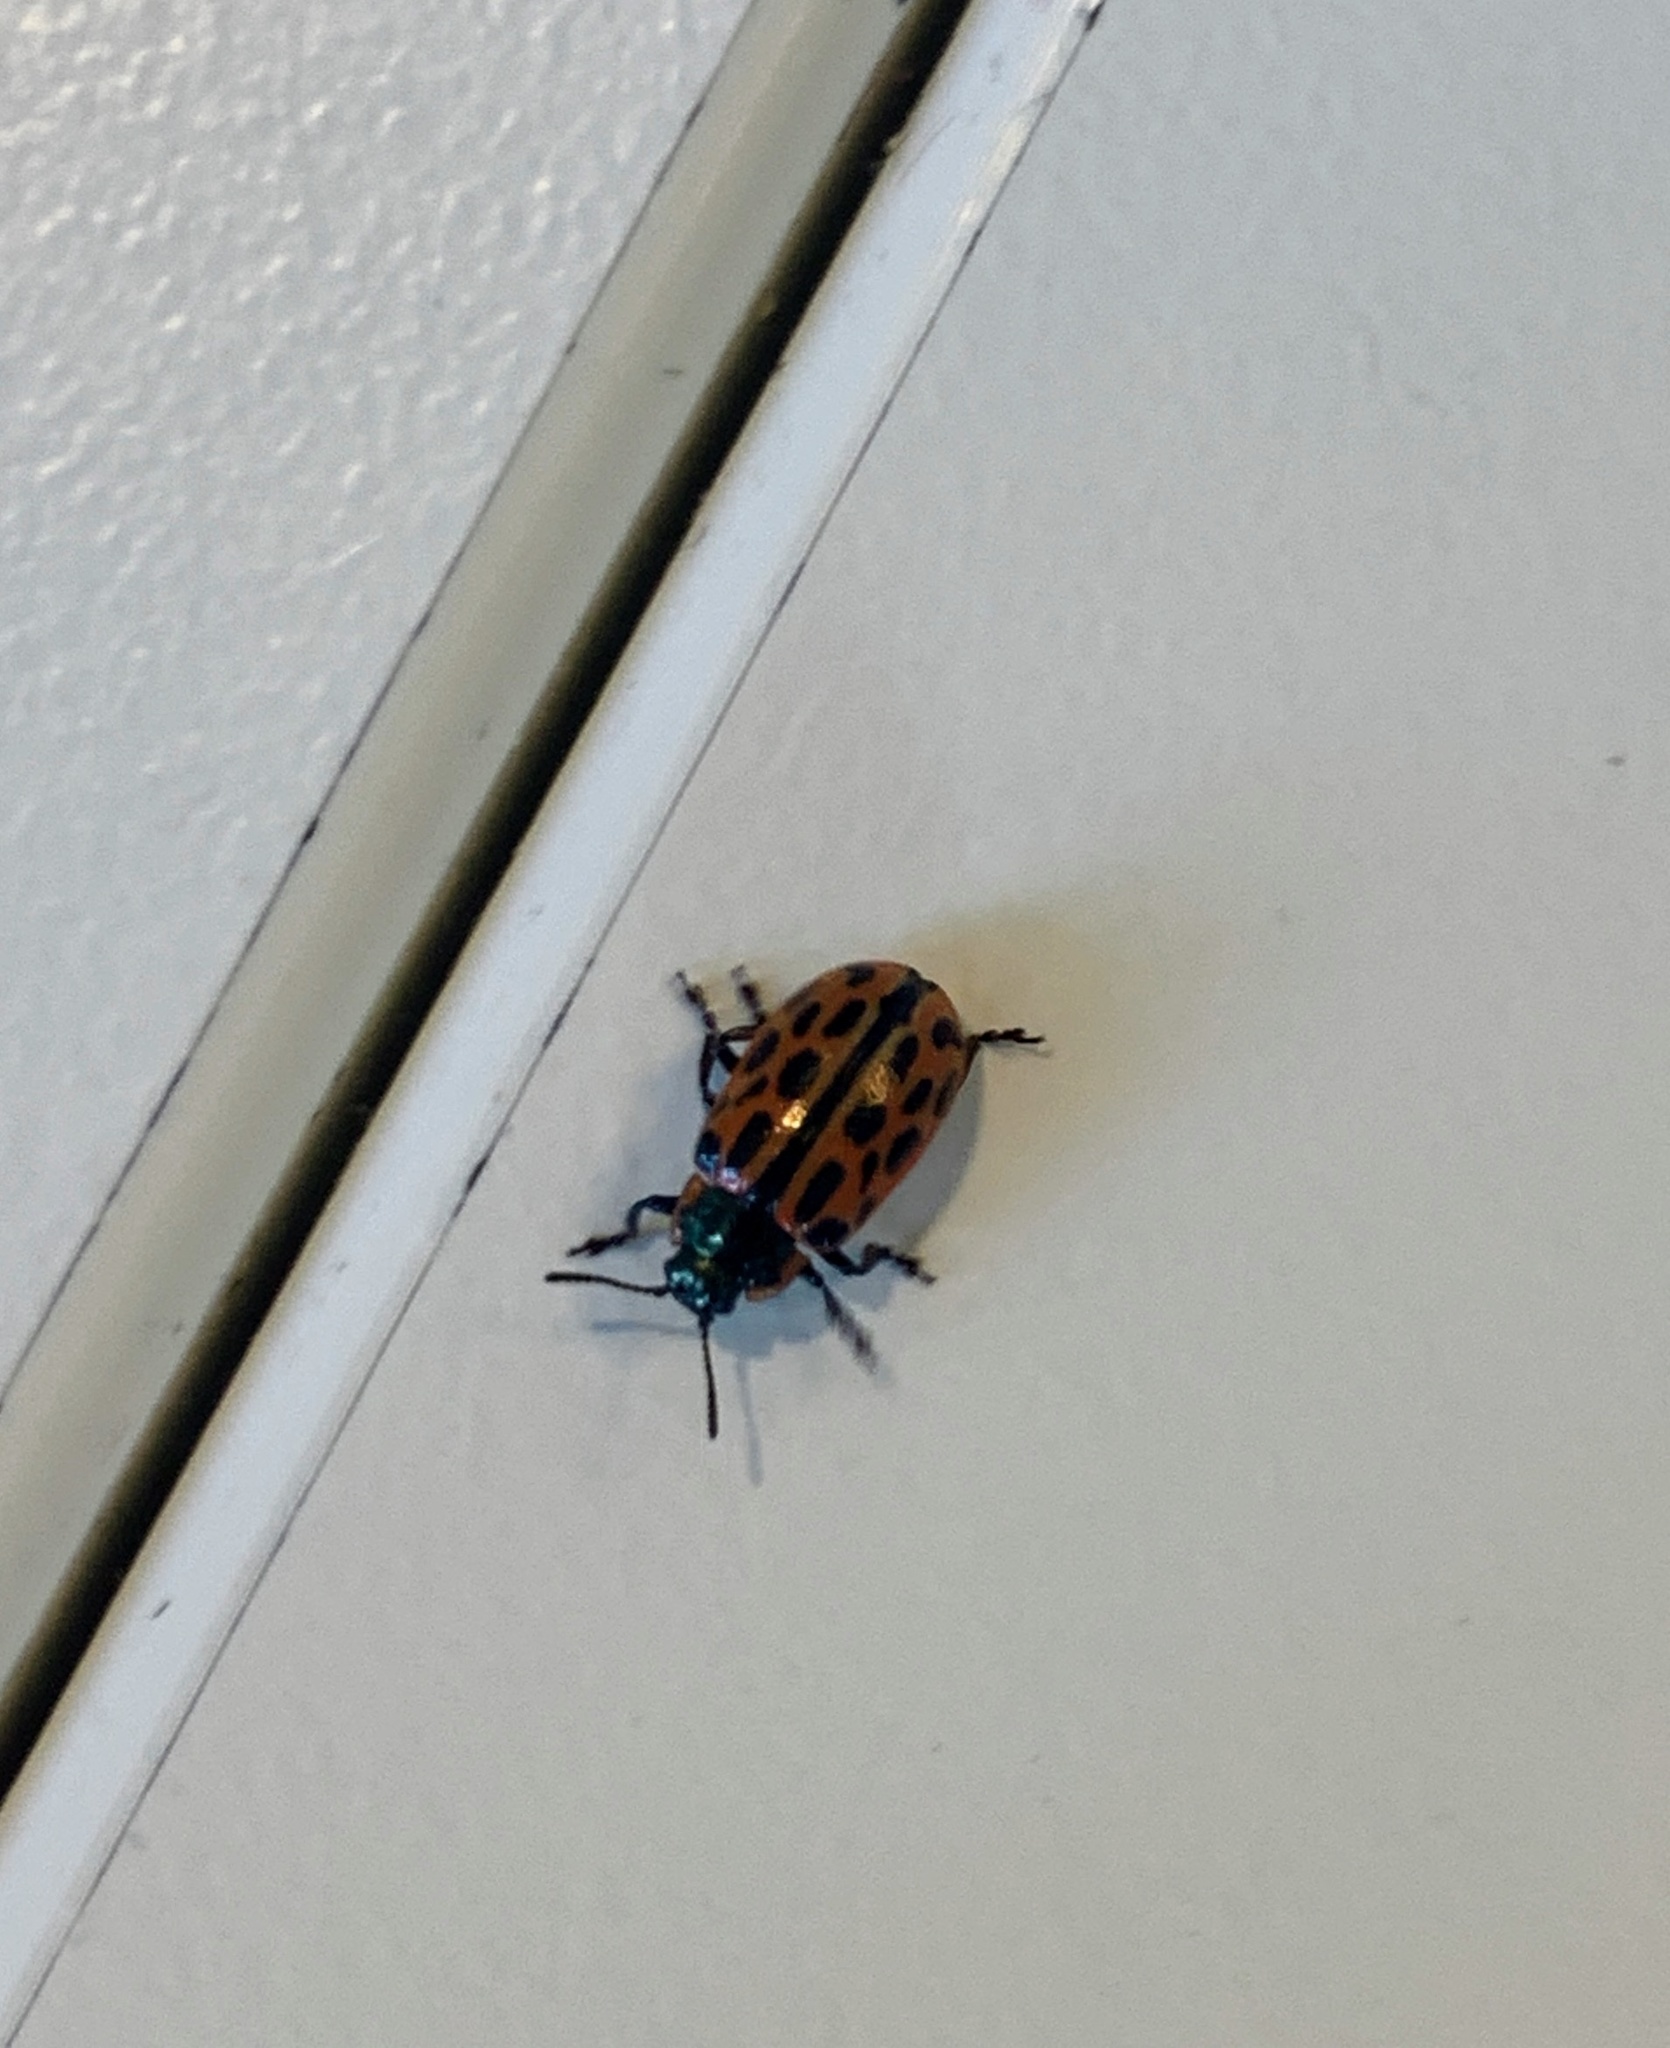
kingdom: Animalia
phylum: Arthropoda
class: Insecta
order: Coleoptera
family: Chrysomelidae
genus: Chrysomela
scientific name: Chrysomela vigintipunctata
